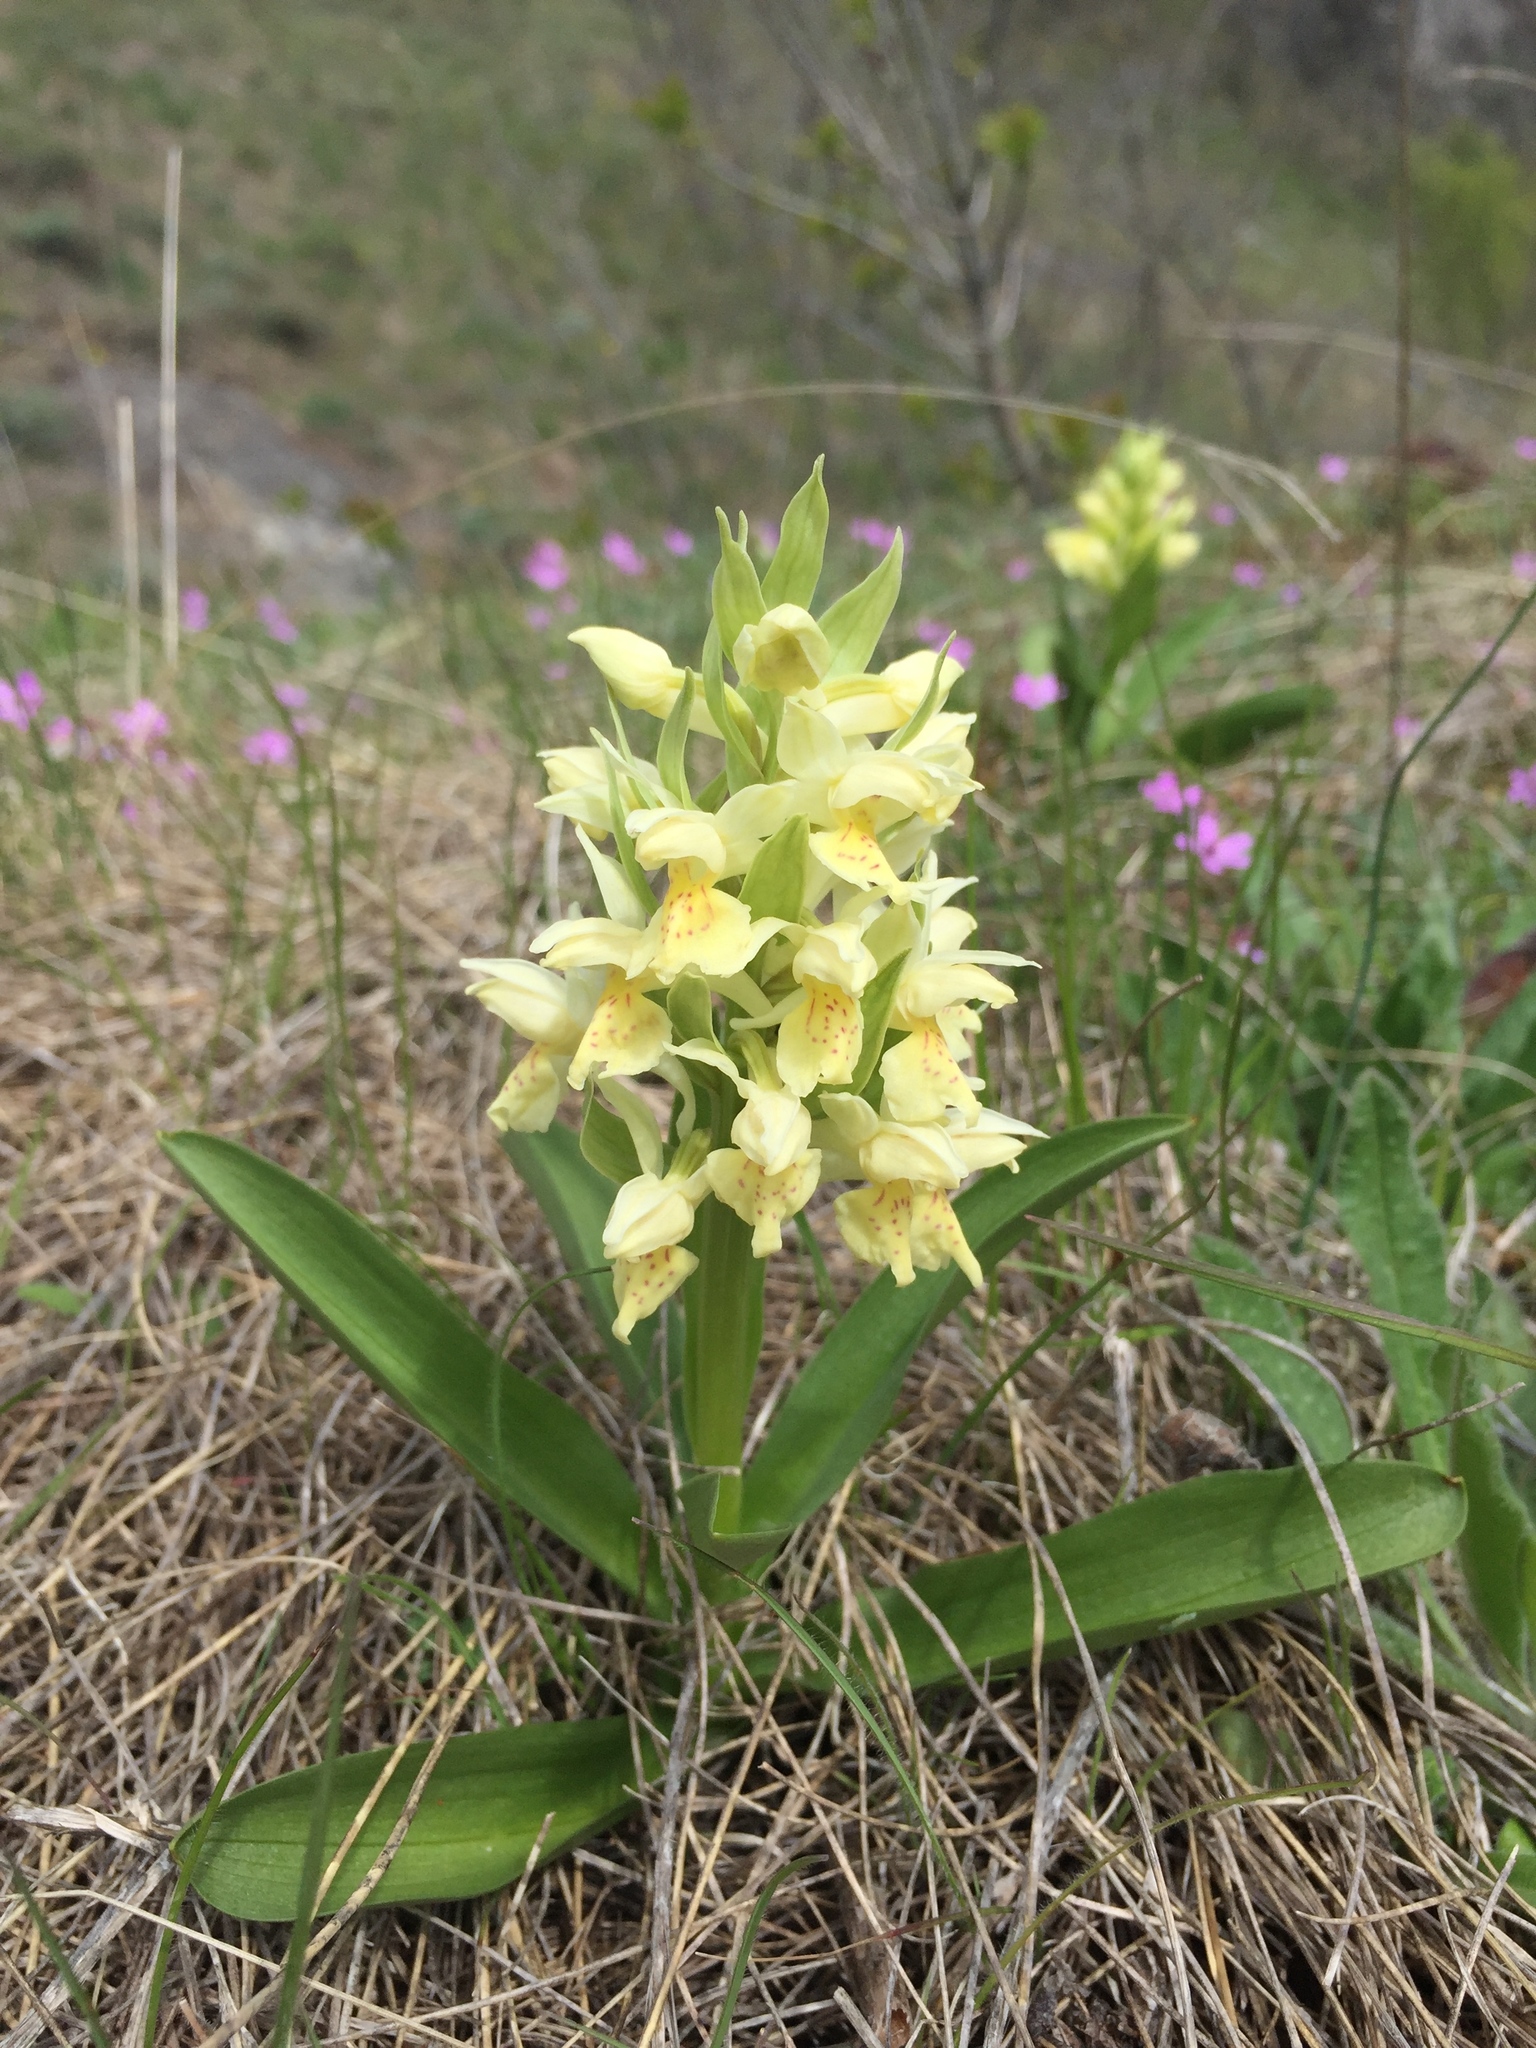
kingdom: Plantae
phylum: Tracheophyta
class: Liliopsida
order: Asparagales
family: Orchidaceae
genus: Dactylorhiza
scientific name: Dactylorhiza sambucina
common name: Elder-flowered orchid
